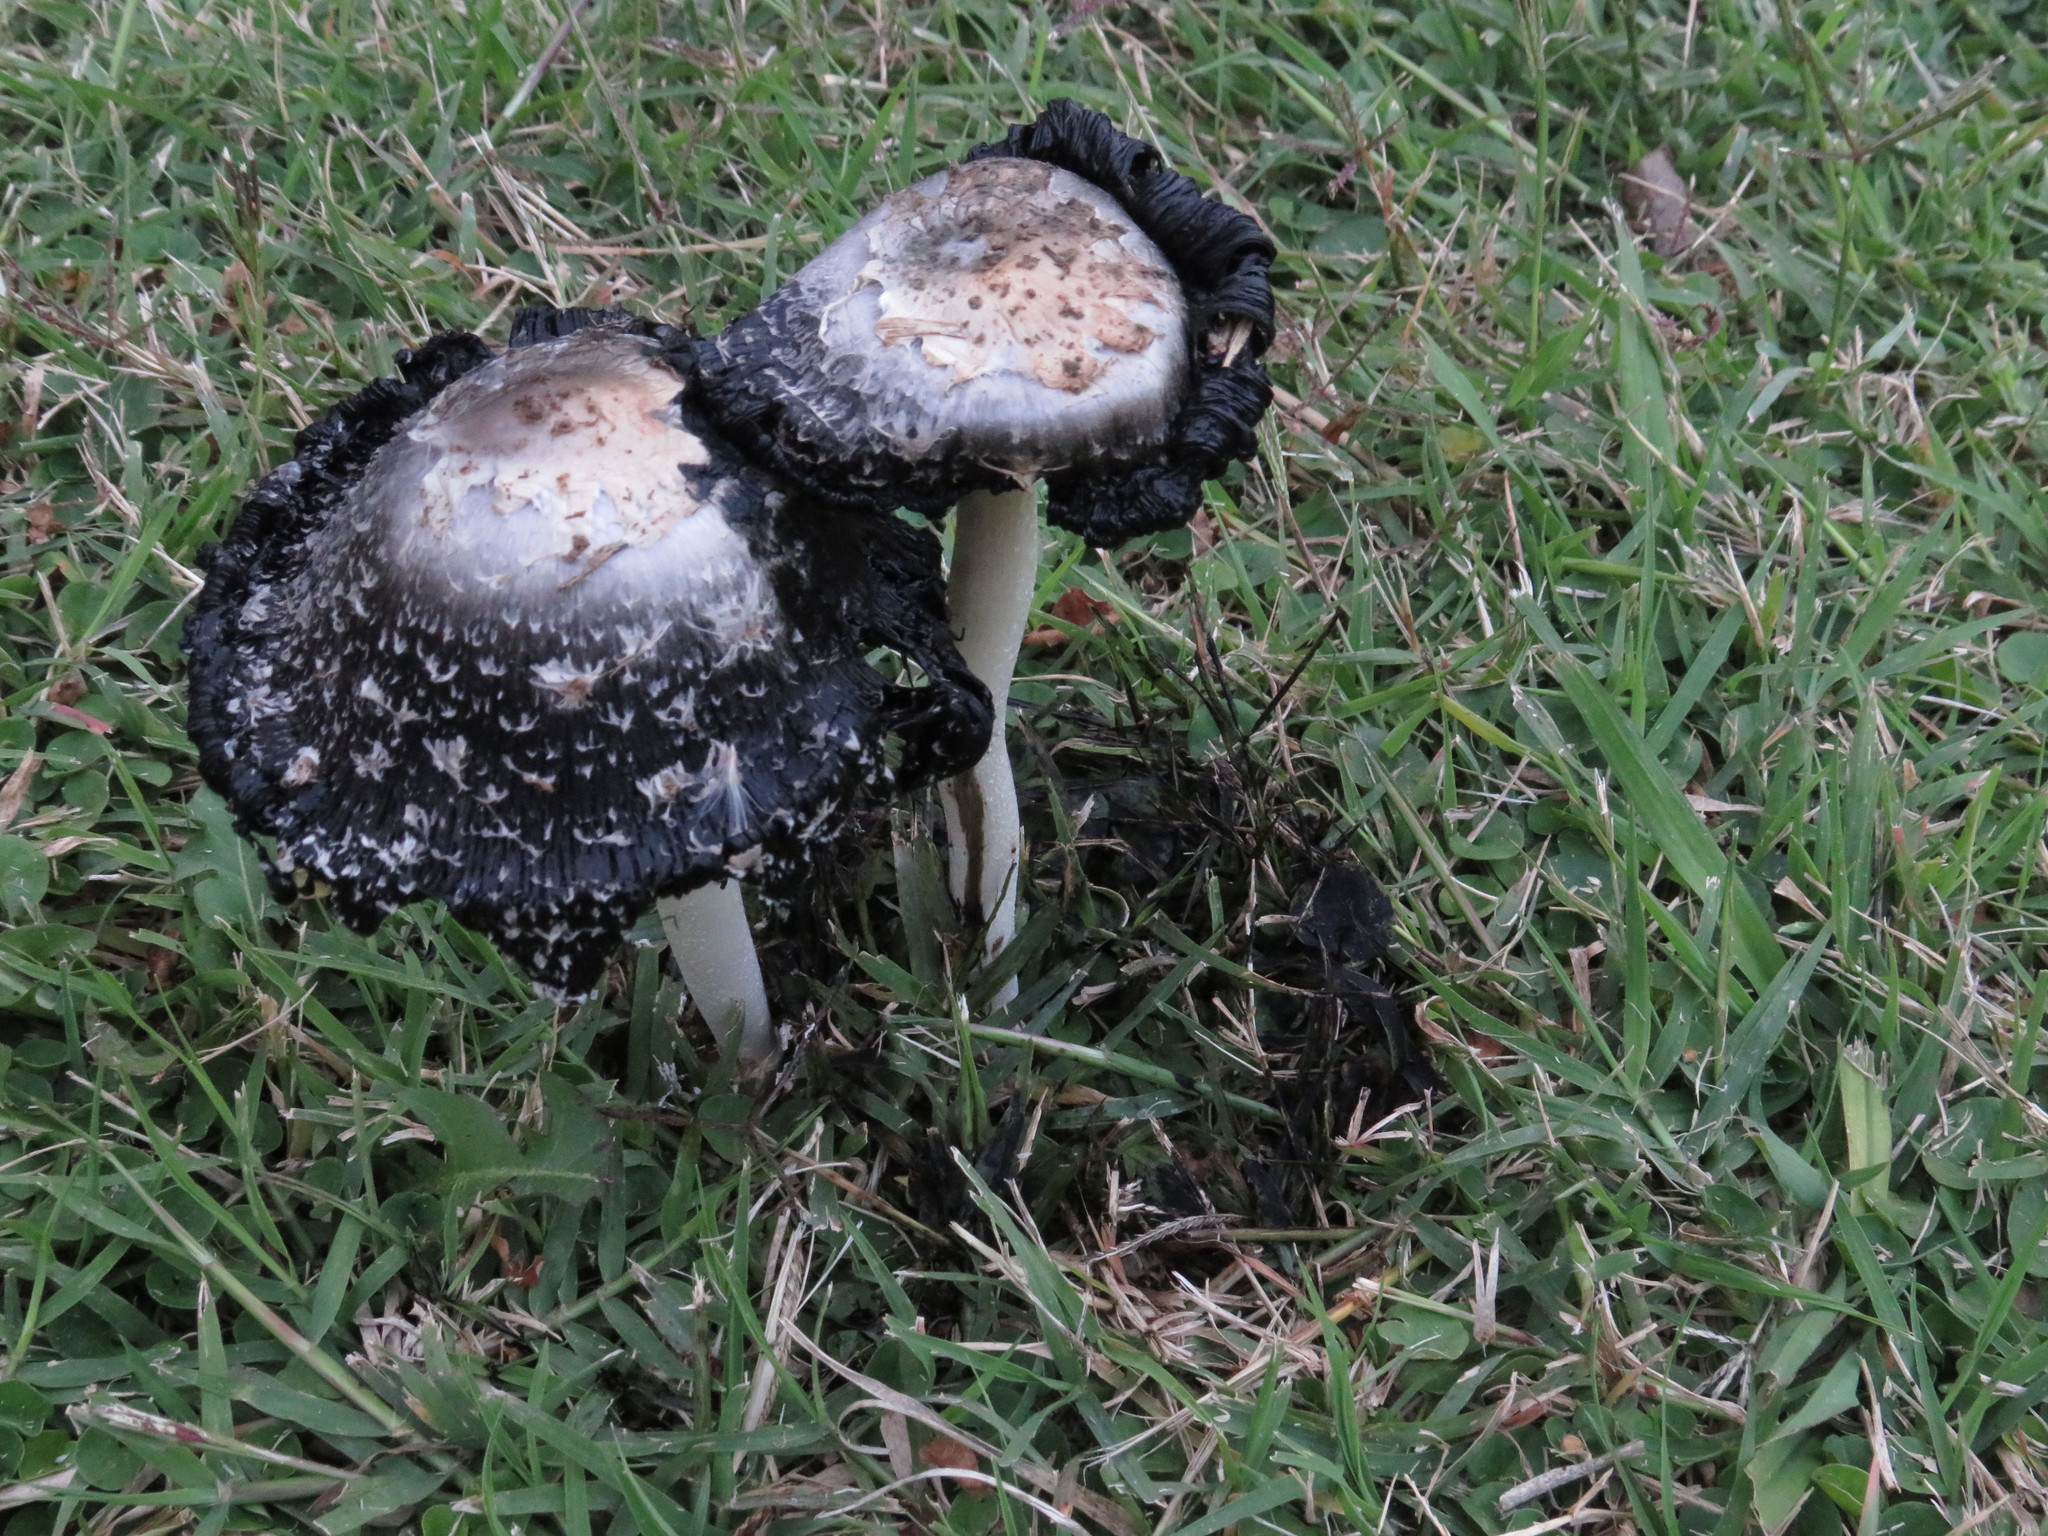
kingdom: Fungi
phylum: Basidiomycota
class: Agaricomycetes
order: Agaricales
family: Agaricaceae
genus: Coprinus
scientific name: Coprinus comatus
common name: Lawyer's wig
